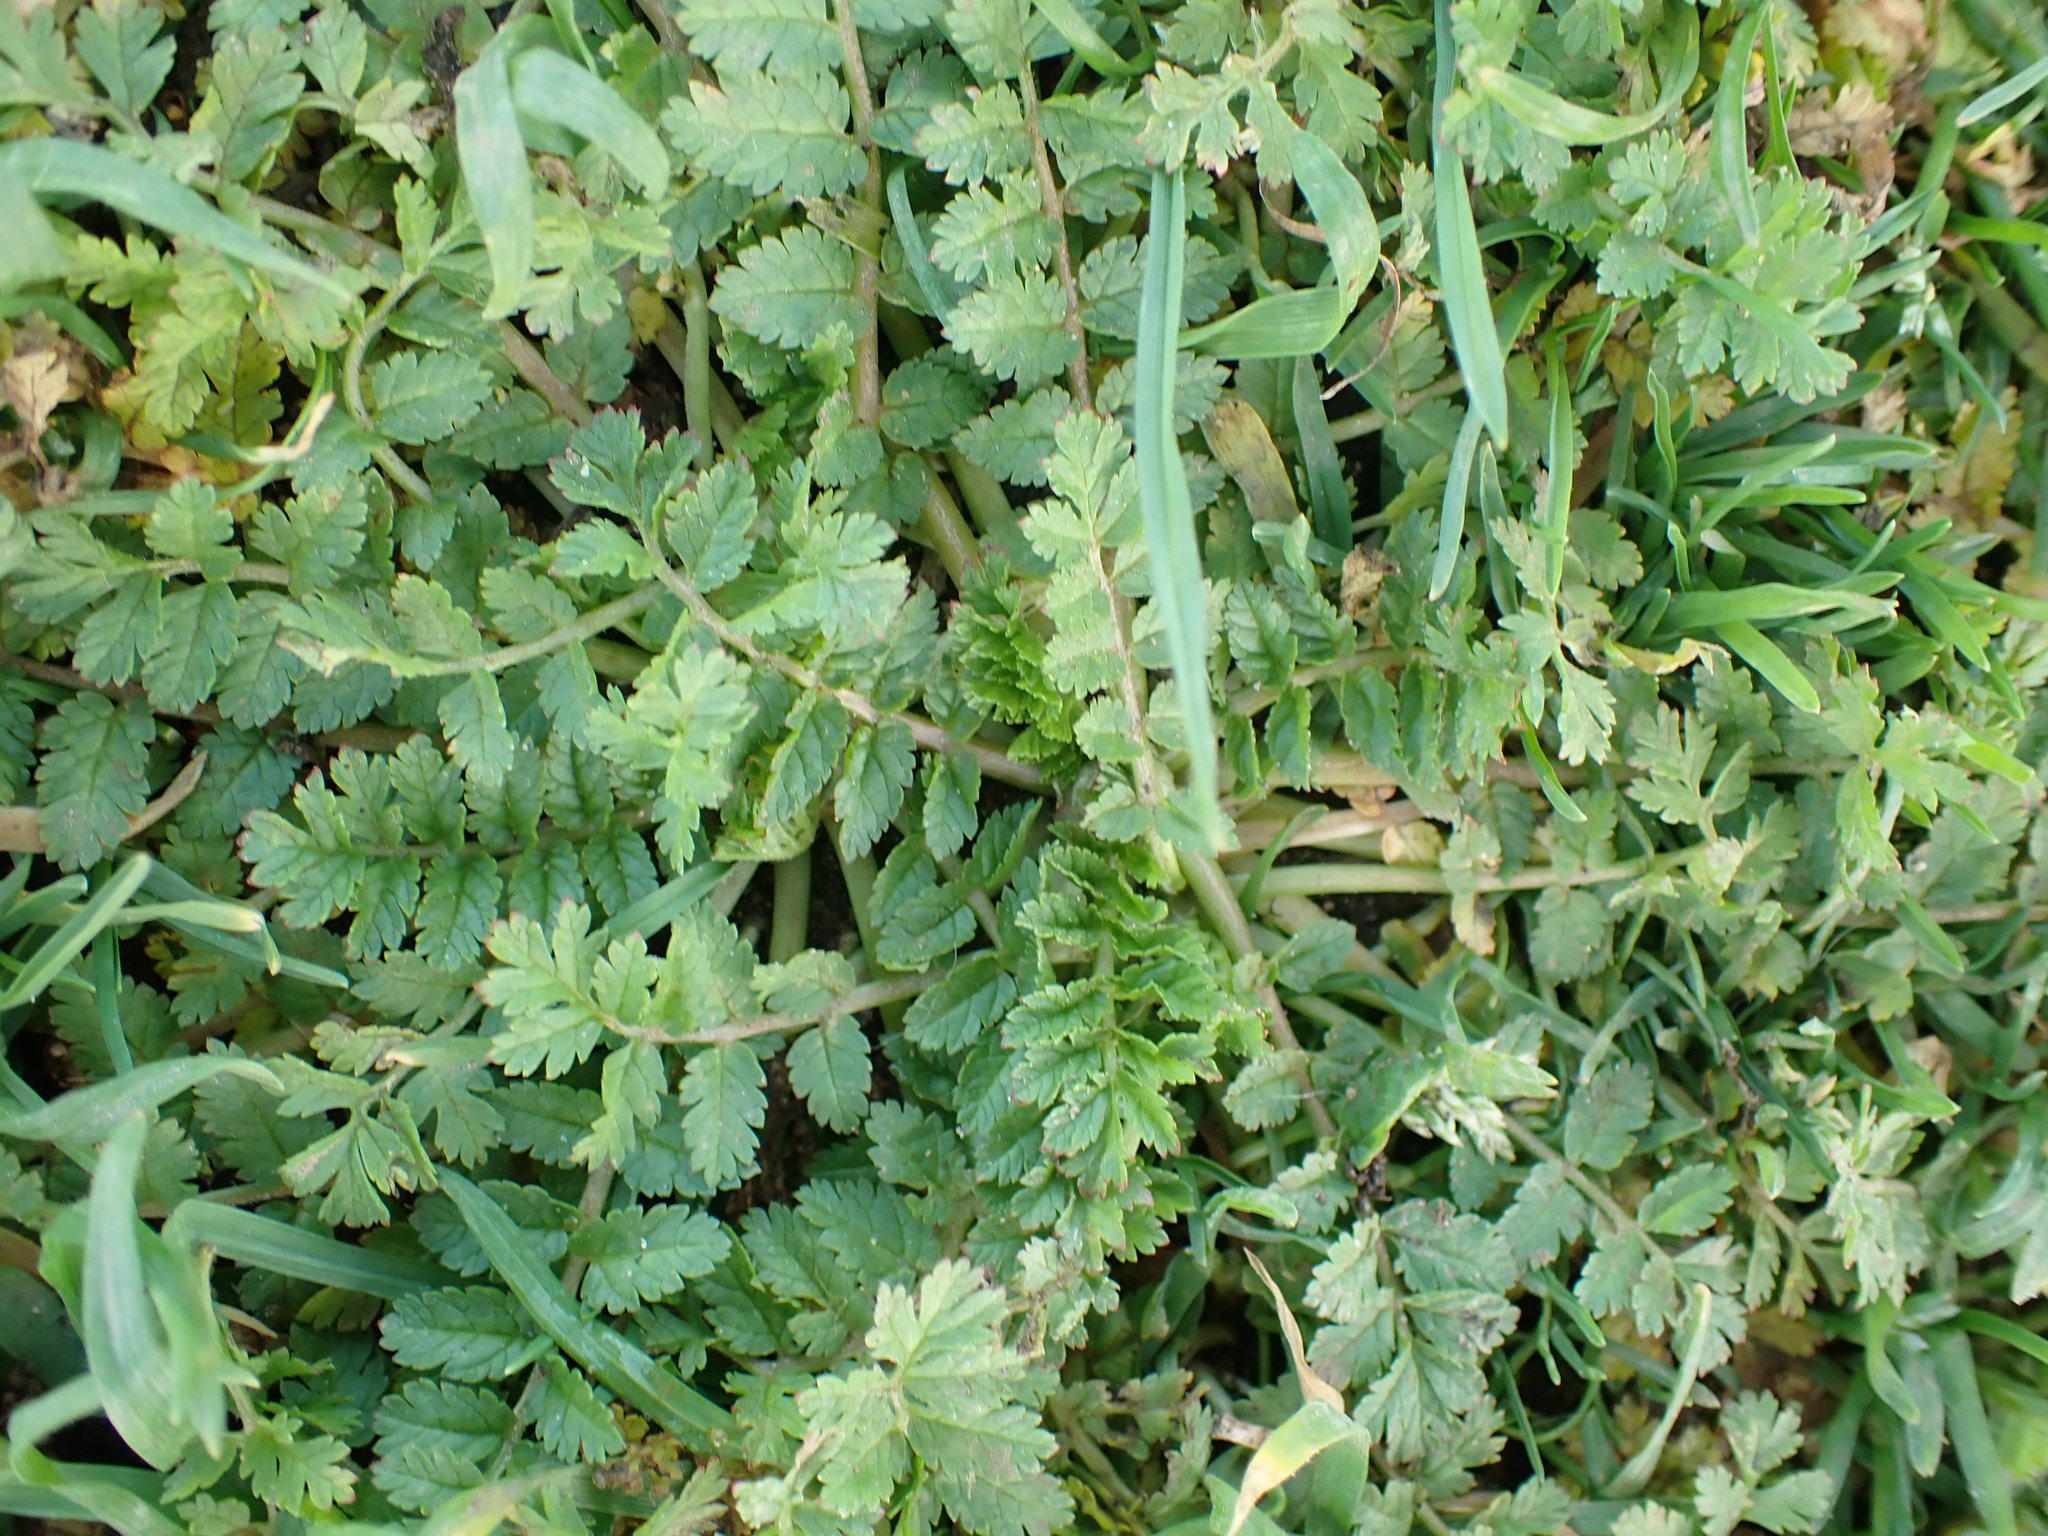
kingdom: Plantae
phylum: Tracheophyta
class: Magnoliopsida
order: Geraniales
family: Geraniaceae
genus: Erodium
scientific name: Erodium cicutarium
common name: Common stork's-bill
